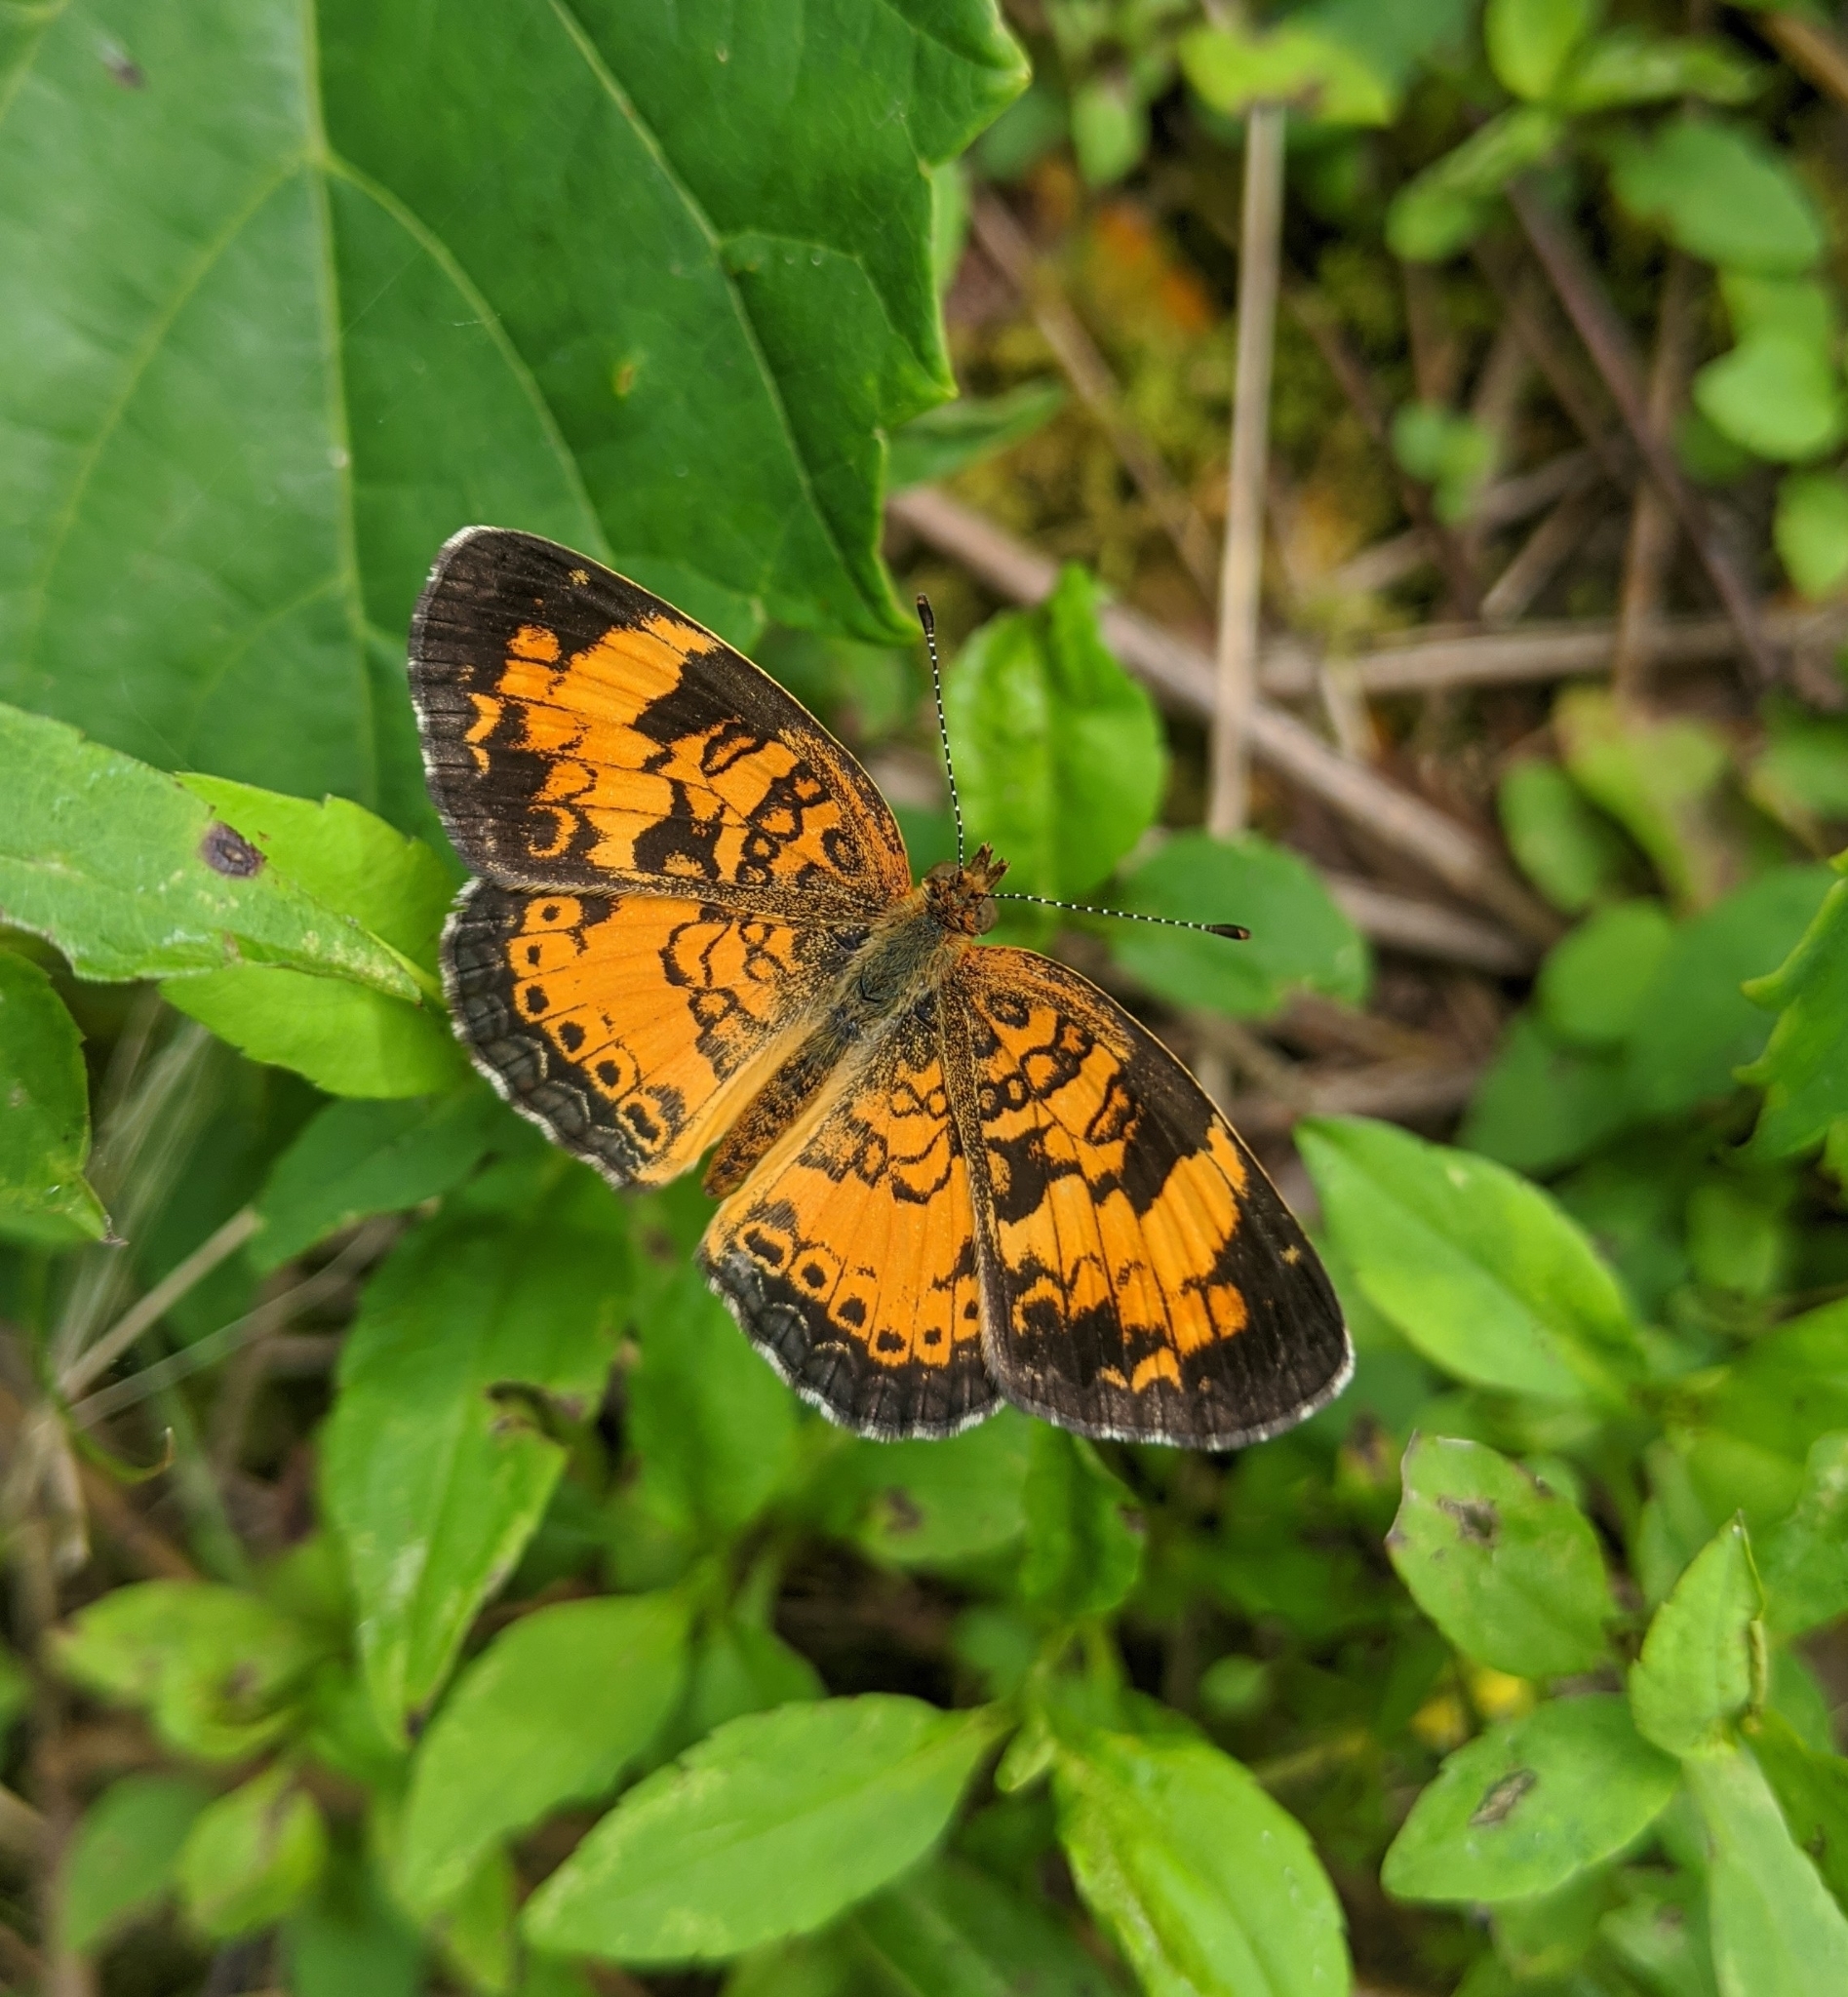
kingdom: Animalia
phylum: Arthropoda
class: Insecta
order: Lepidoptera
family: Nymphalidae
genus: Phyciodes
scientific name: Phyciodes tharos
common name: Pearl crescent
